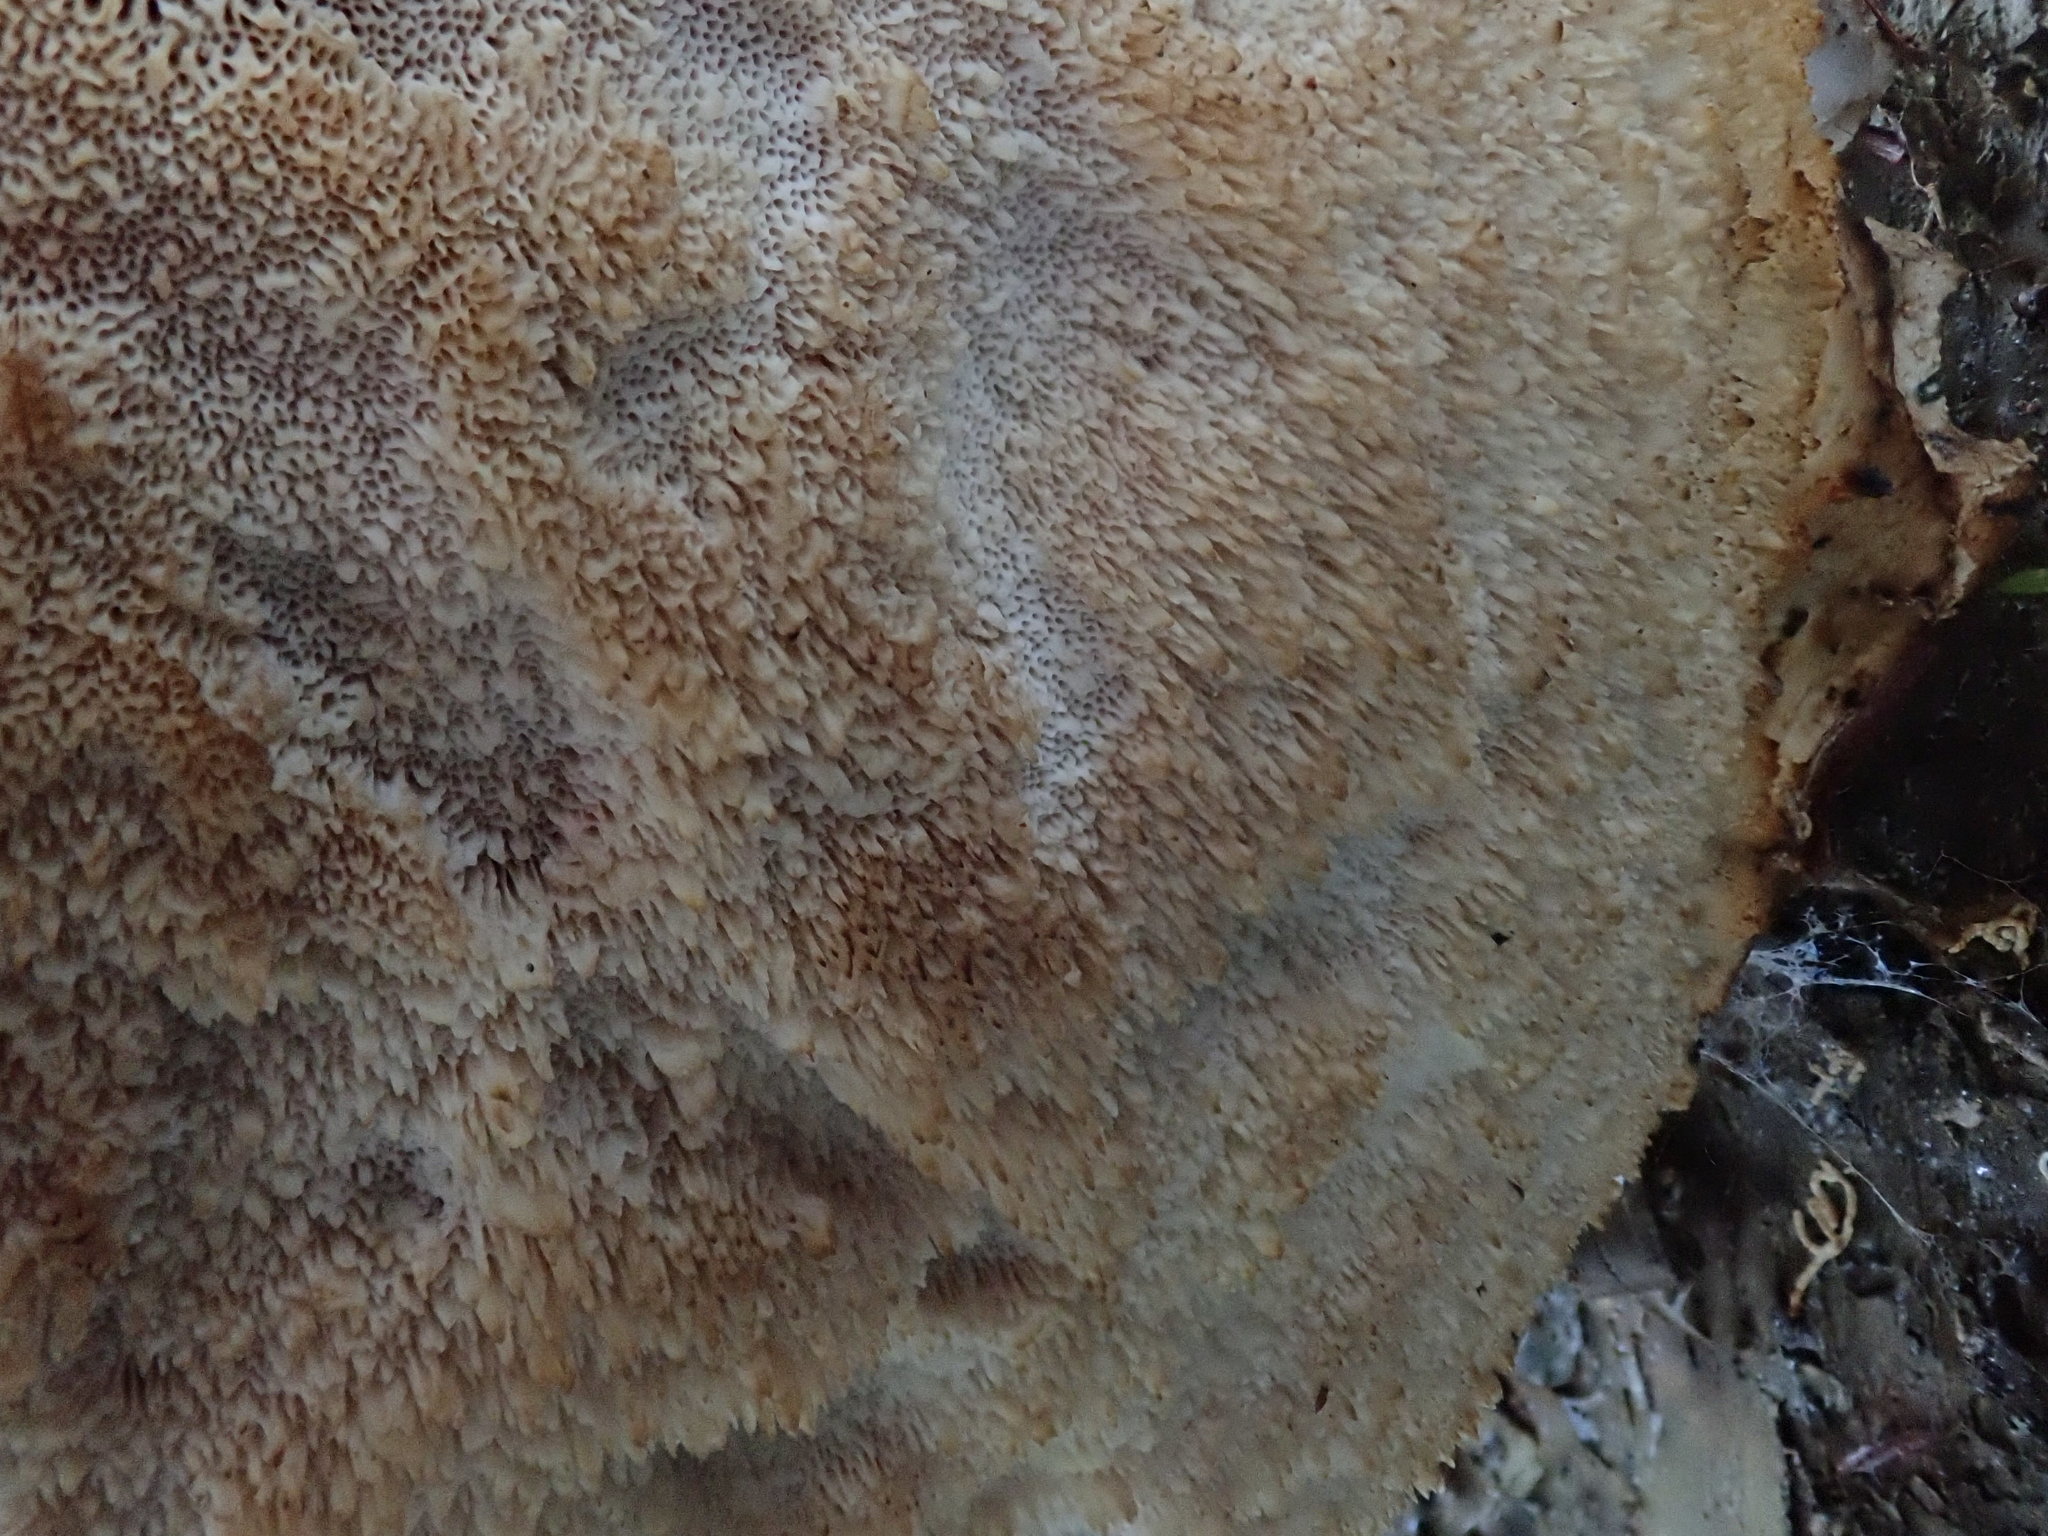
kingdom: Fungi
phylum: Basidiomycota
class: Agaricomycetes
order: Polyporales
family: Fomitopsidaceae
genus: Fomitopsis
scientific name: Fomitopsis betulina
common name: Birch polypore
